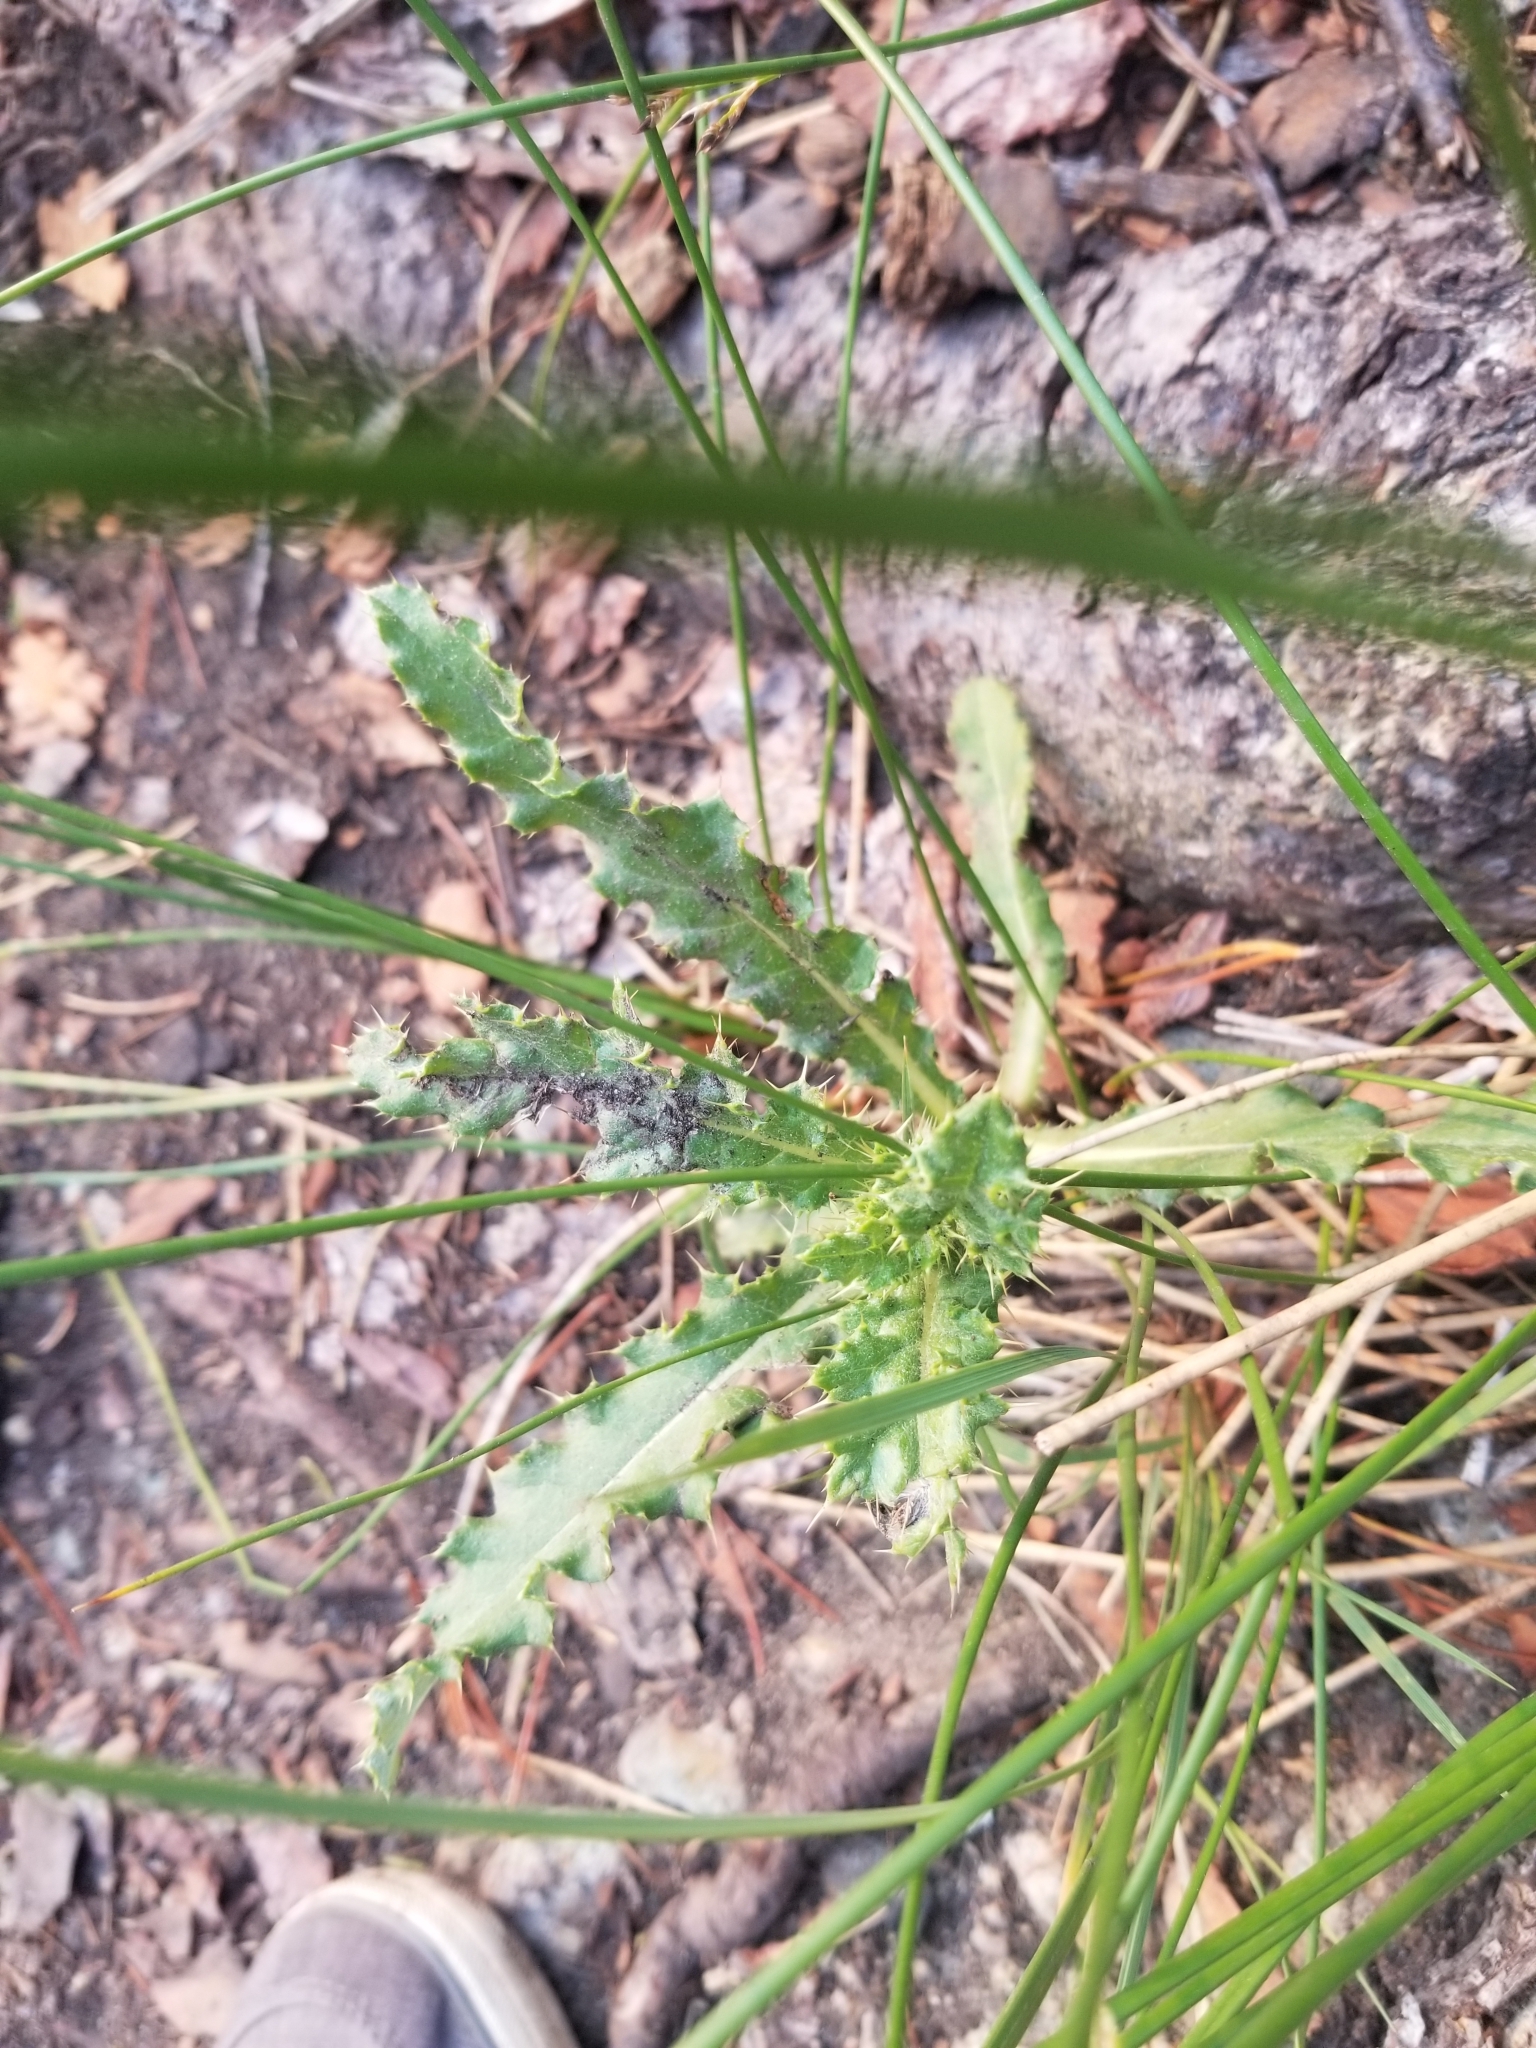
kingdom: Plantae
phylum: Tracheophyta
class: Magnoliopsida
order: Asterales
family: Asteraceae
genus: Cirsium
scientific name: Cirsium arvense
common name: Creeping thistle
